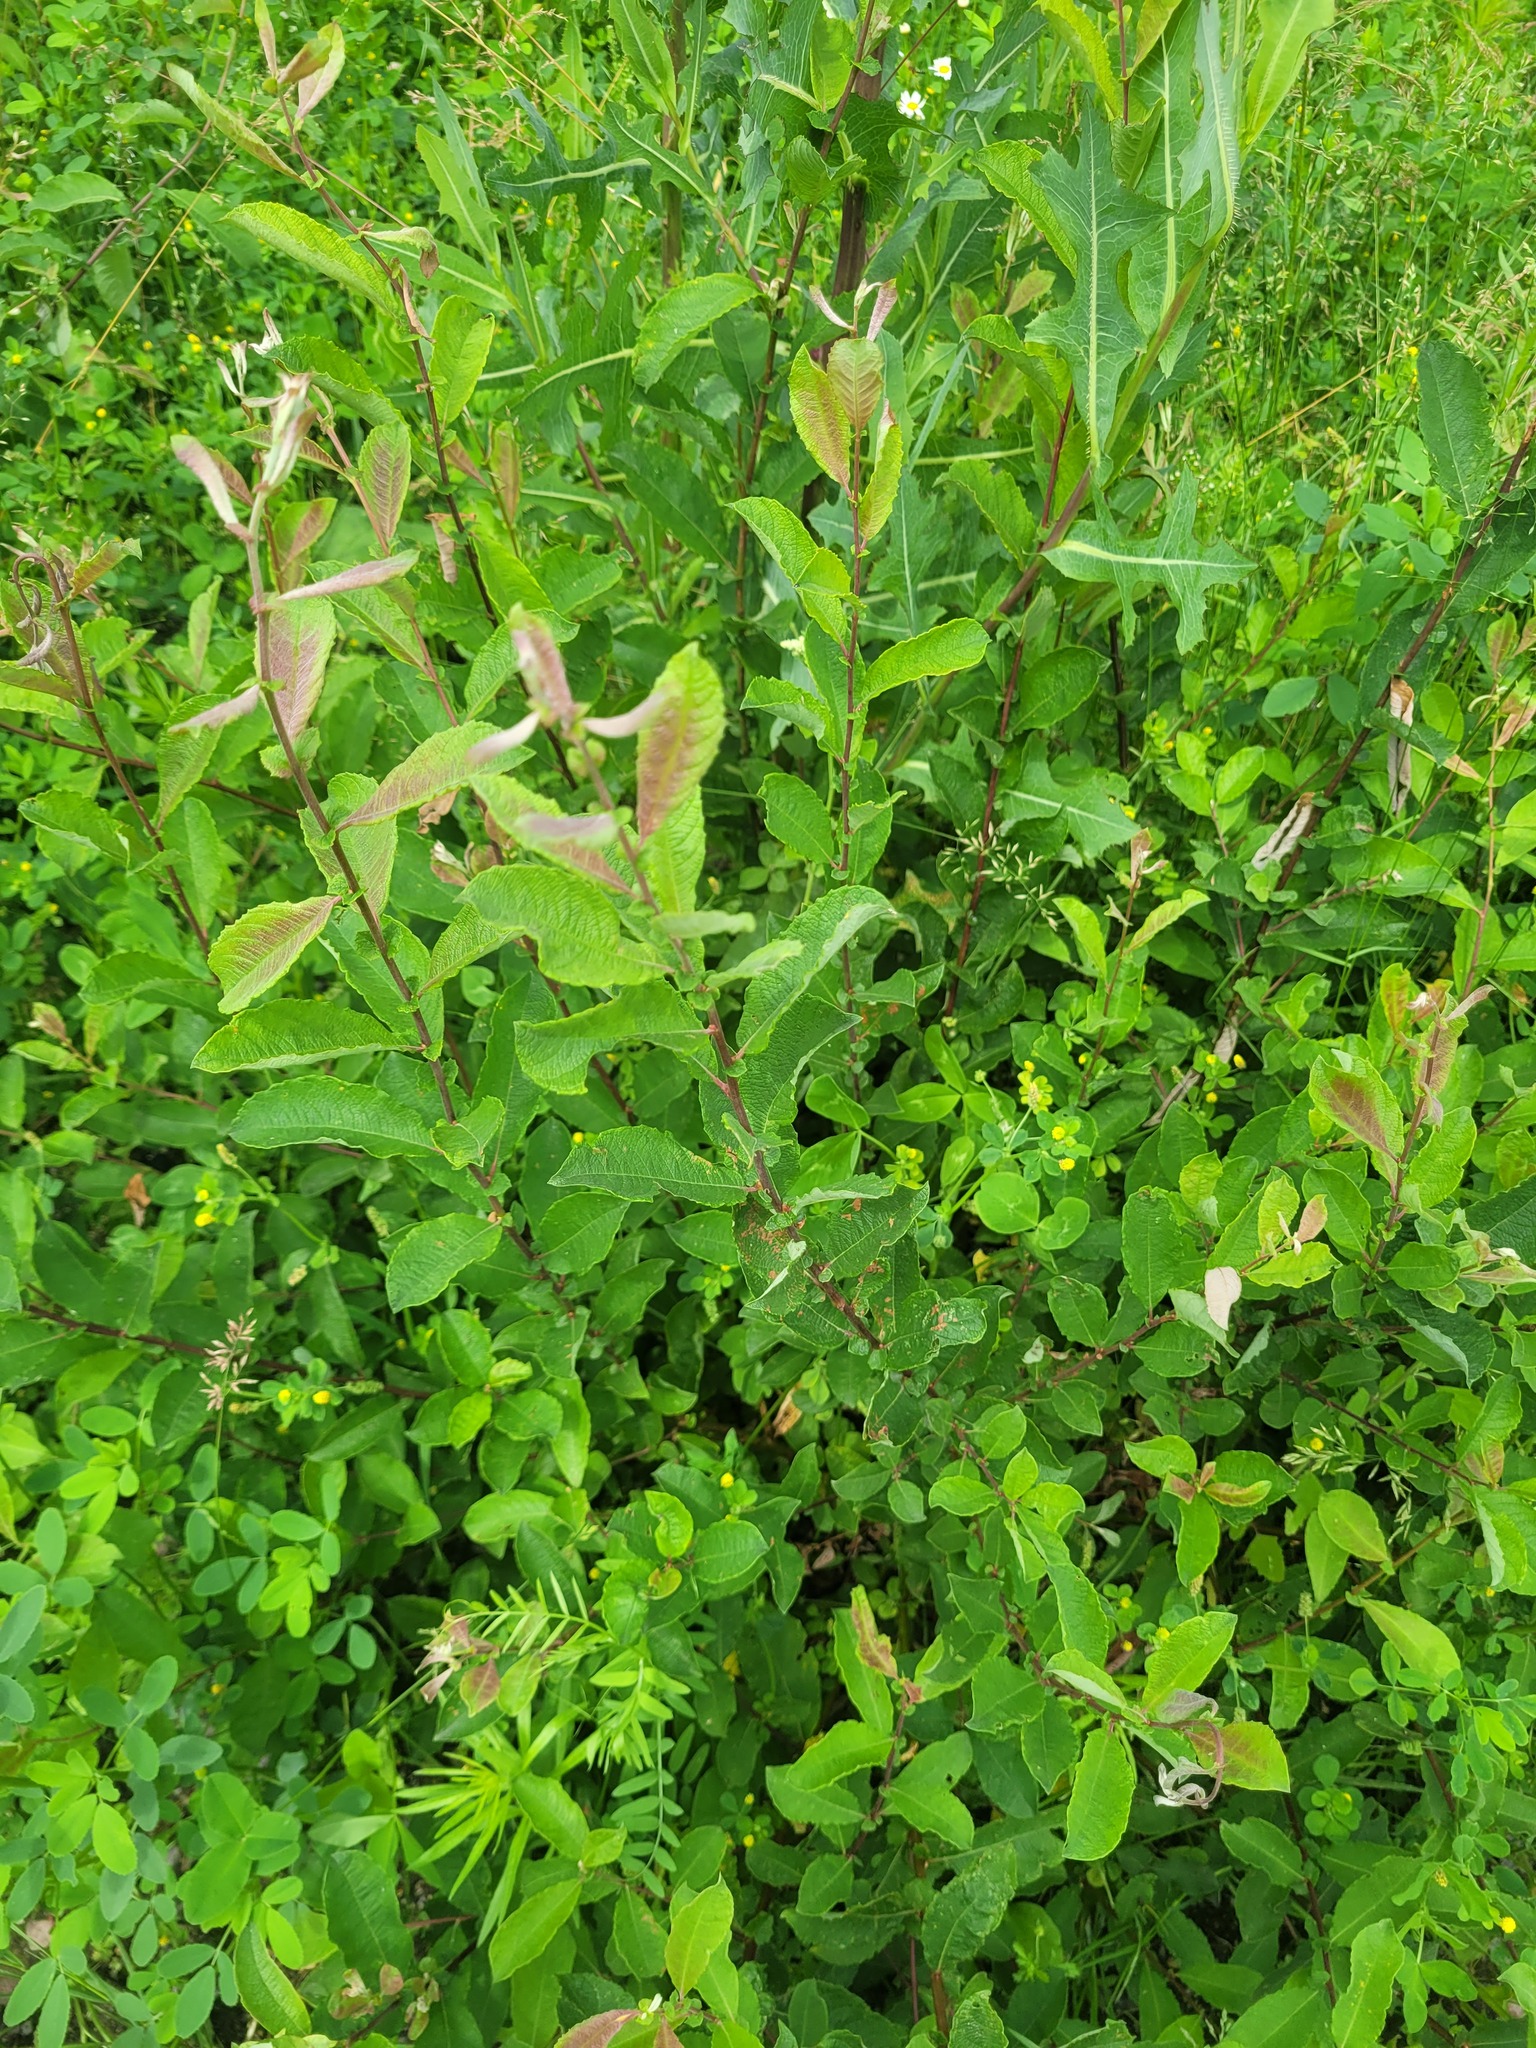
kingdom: Plantae
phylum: Tracheophyta
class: Magnoliopsida
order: Malpighiales
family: Salicaceae
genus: Salix
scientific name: Salix aurita
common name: Eared willow
